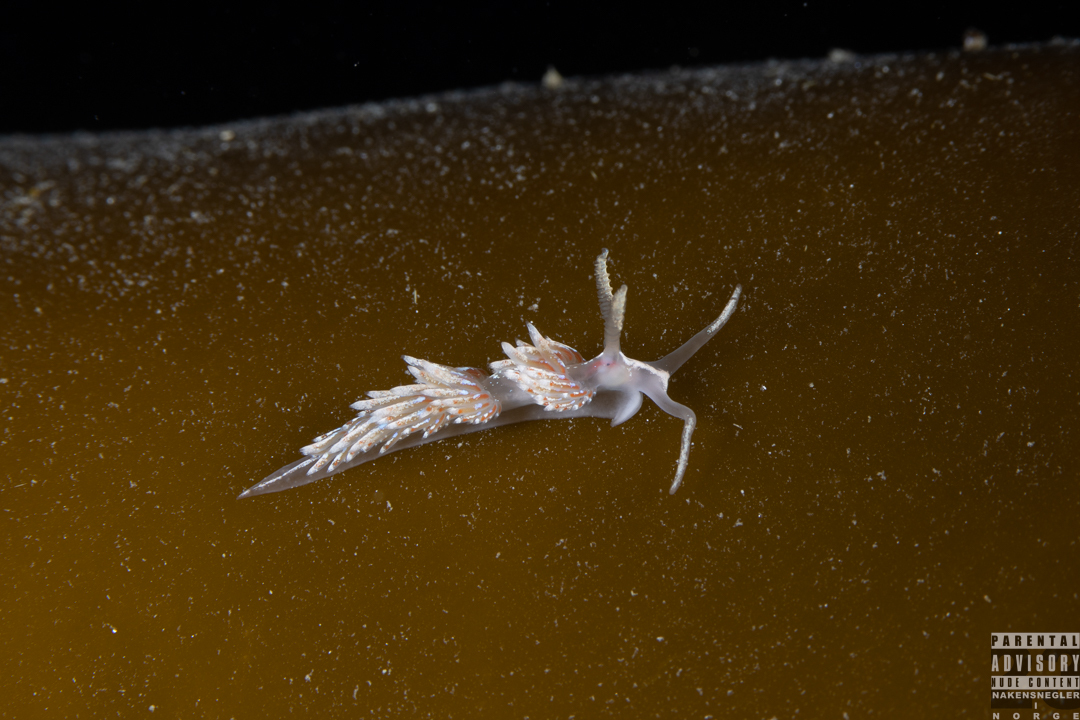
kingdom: Animalia
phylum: Mollusca
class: Gastropoda
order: Nudibranchia
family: Facelinidae
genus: Facelina
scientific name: Facelina auriculata
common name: Slender facelina
